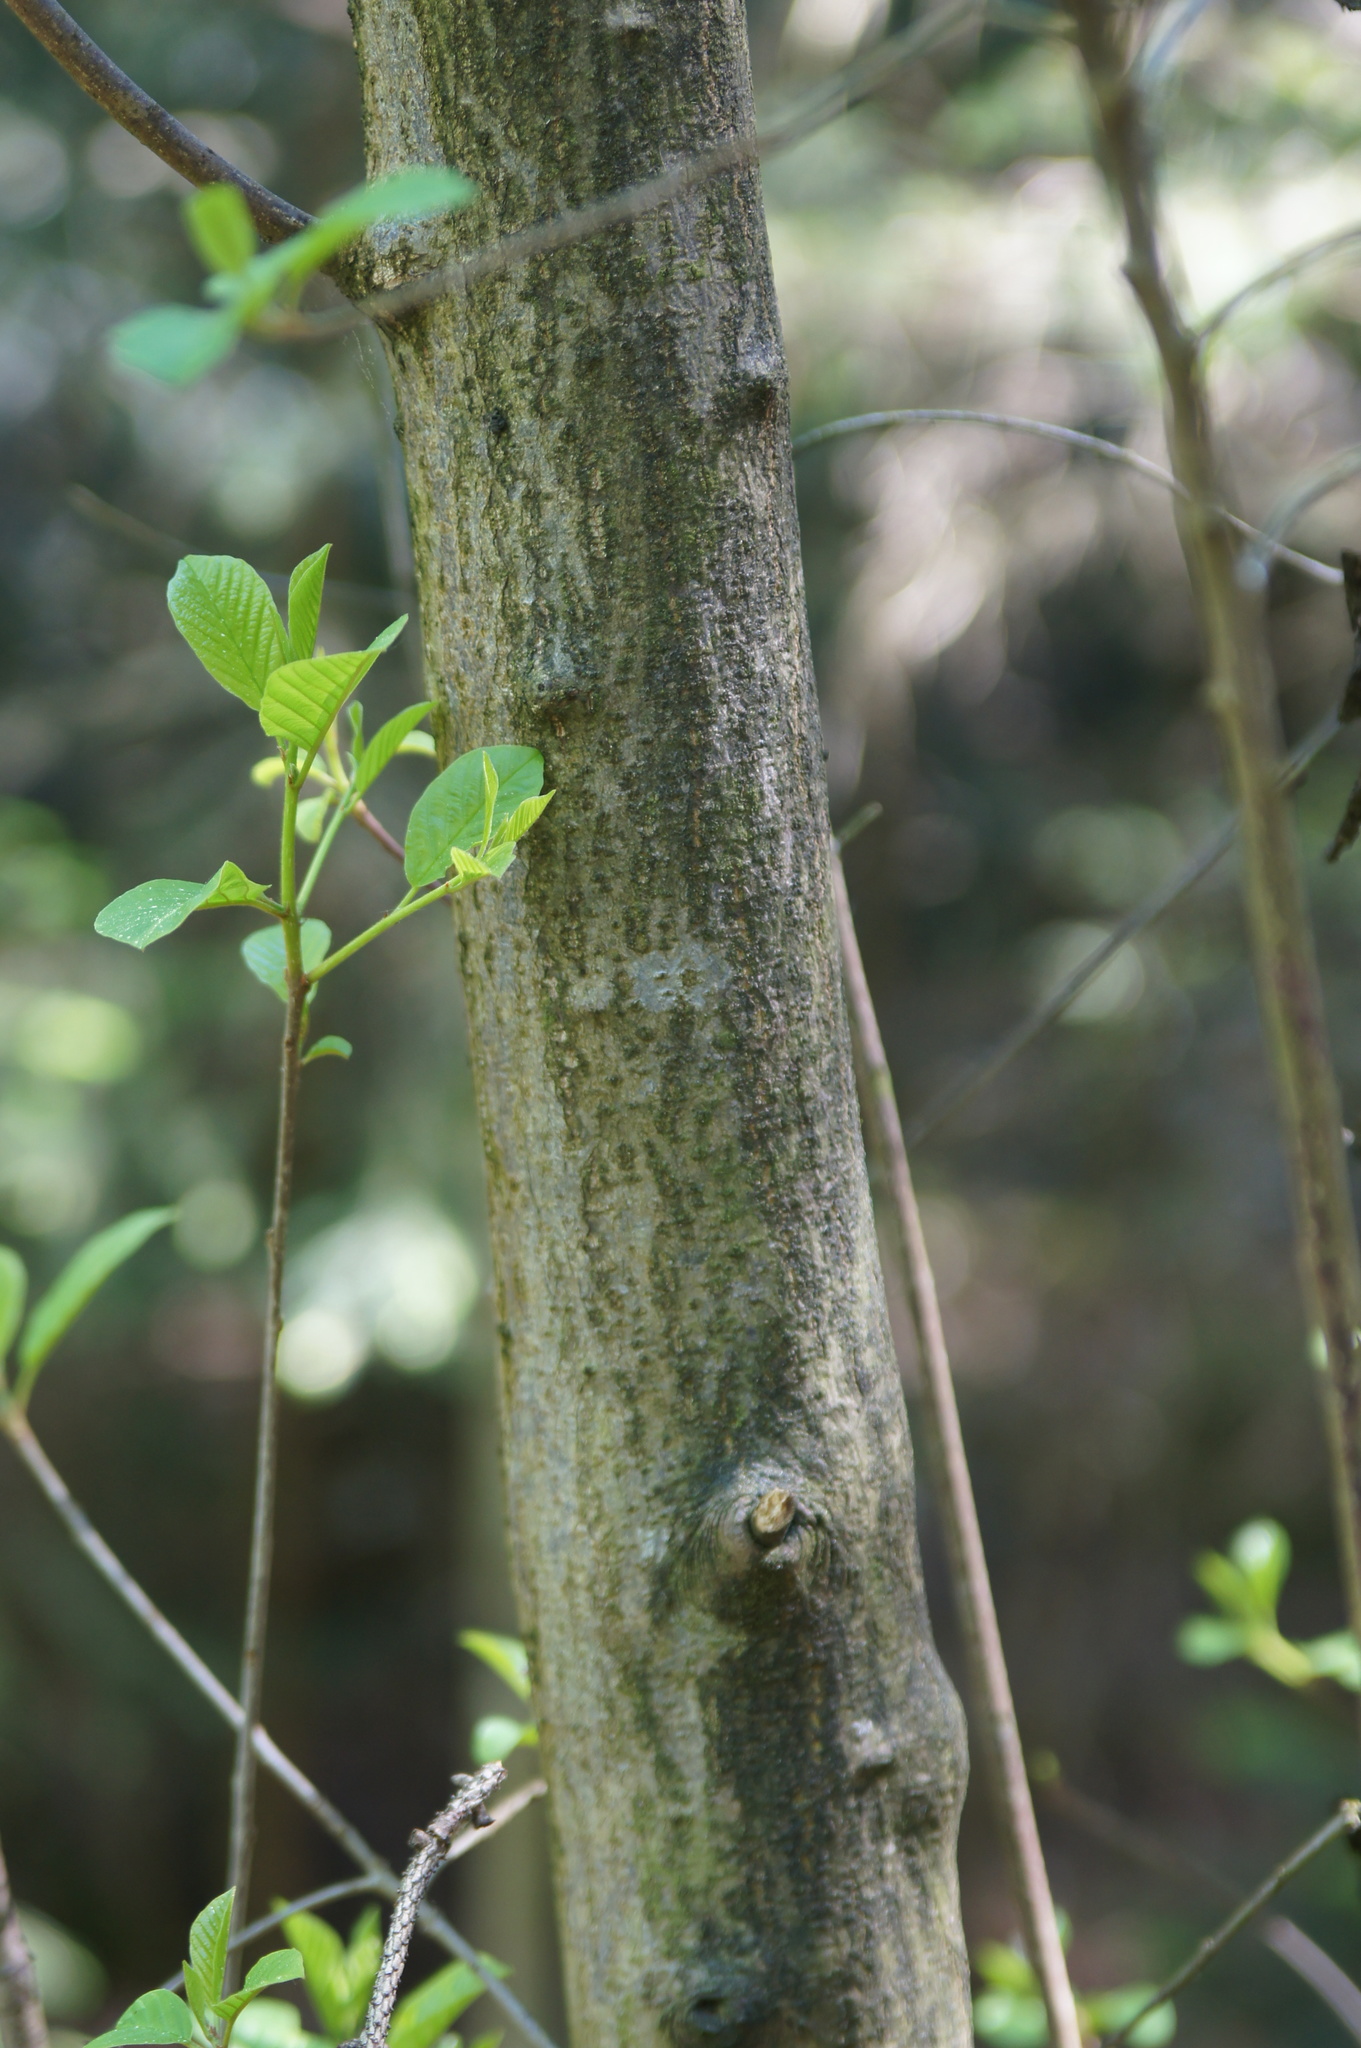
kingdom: Plantae
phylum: Tracheophyta
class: Magnoliopsida
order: Rosales
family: Rhamnaceae
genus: Frangula
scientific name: Frangula alnus
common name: Alder buckthorn
